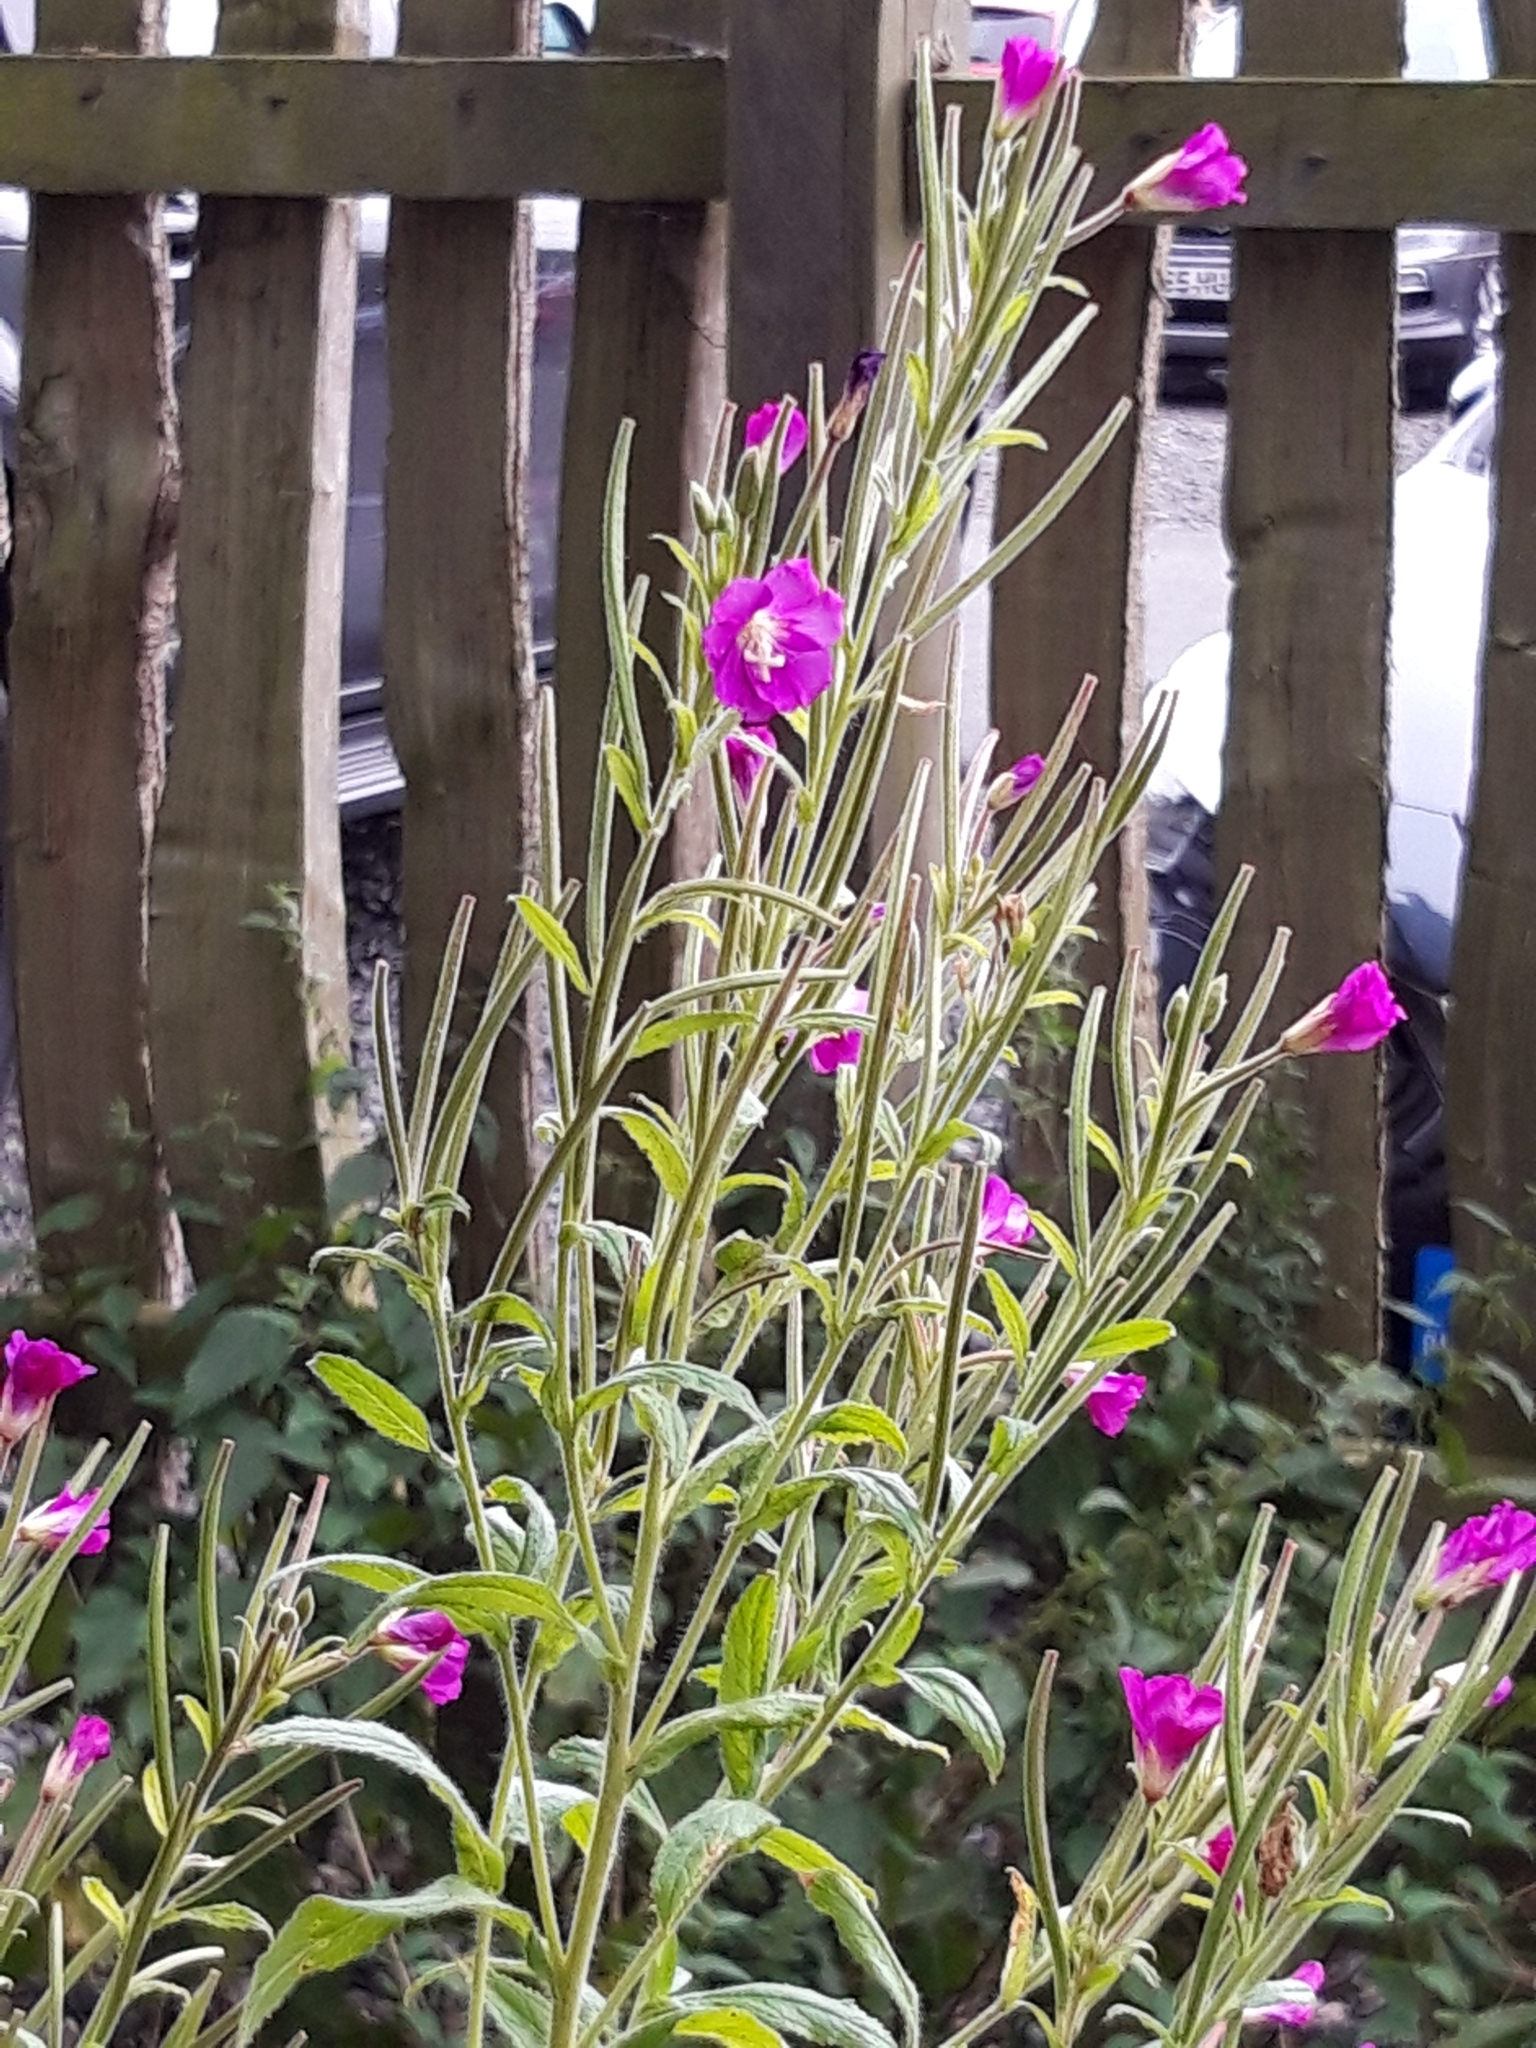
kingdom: Plantae
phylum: Tracheophyta
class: Magnoliopsida
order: Myrtales
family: Onagraceae
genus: Epilobium
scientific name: Epilobium hirsutum
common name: Great willowherb
